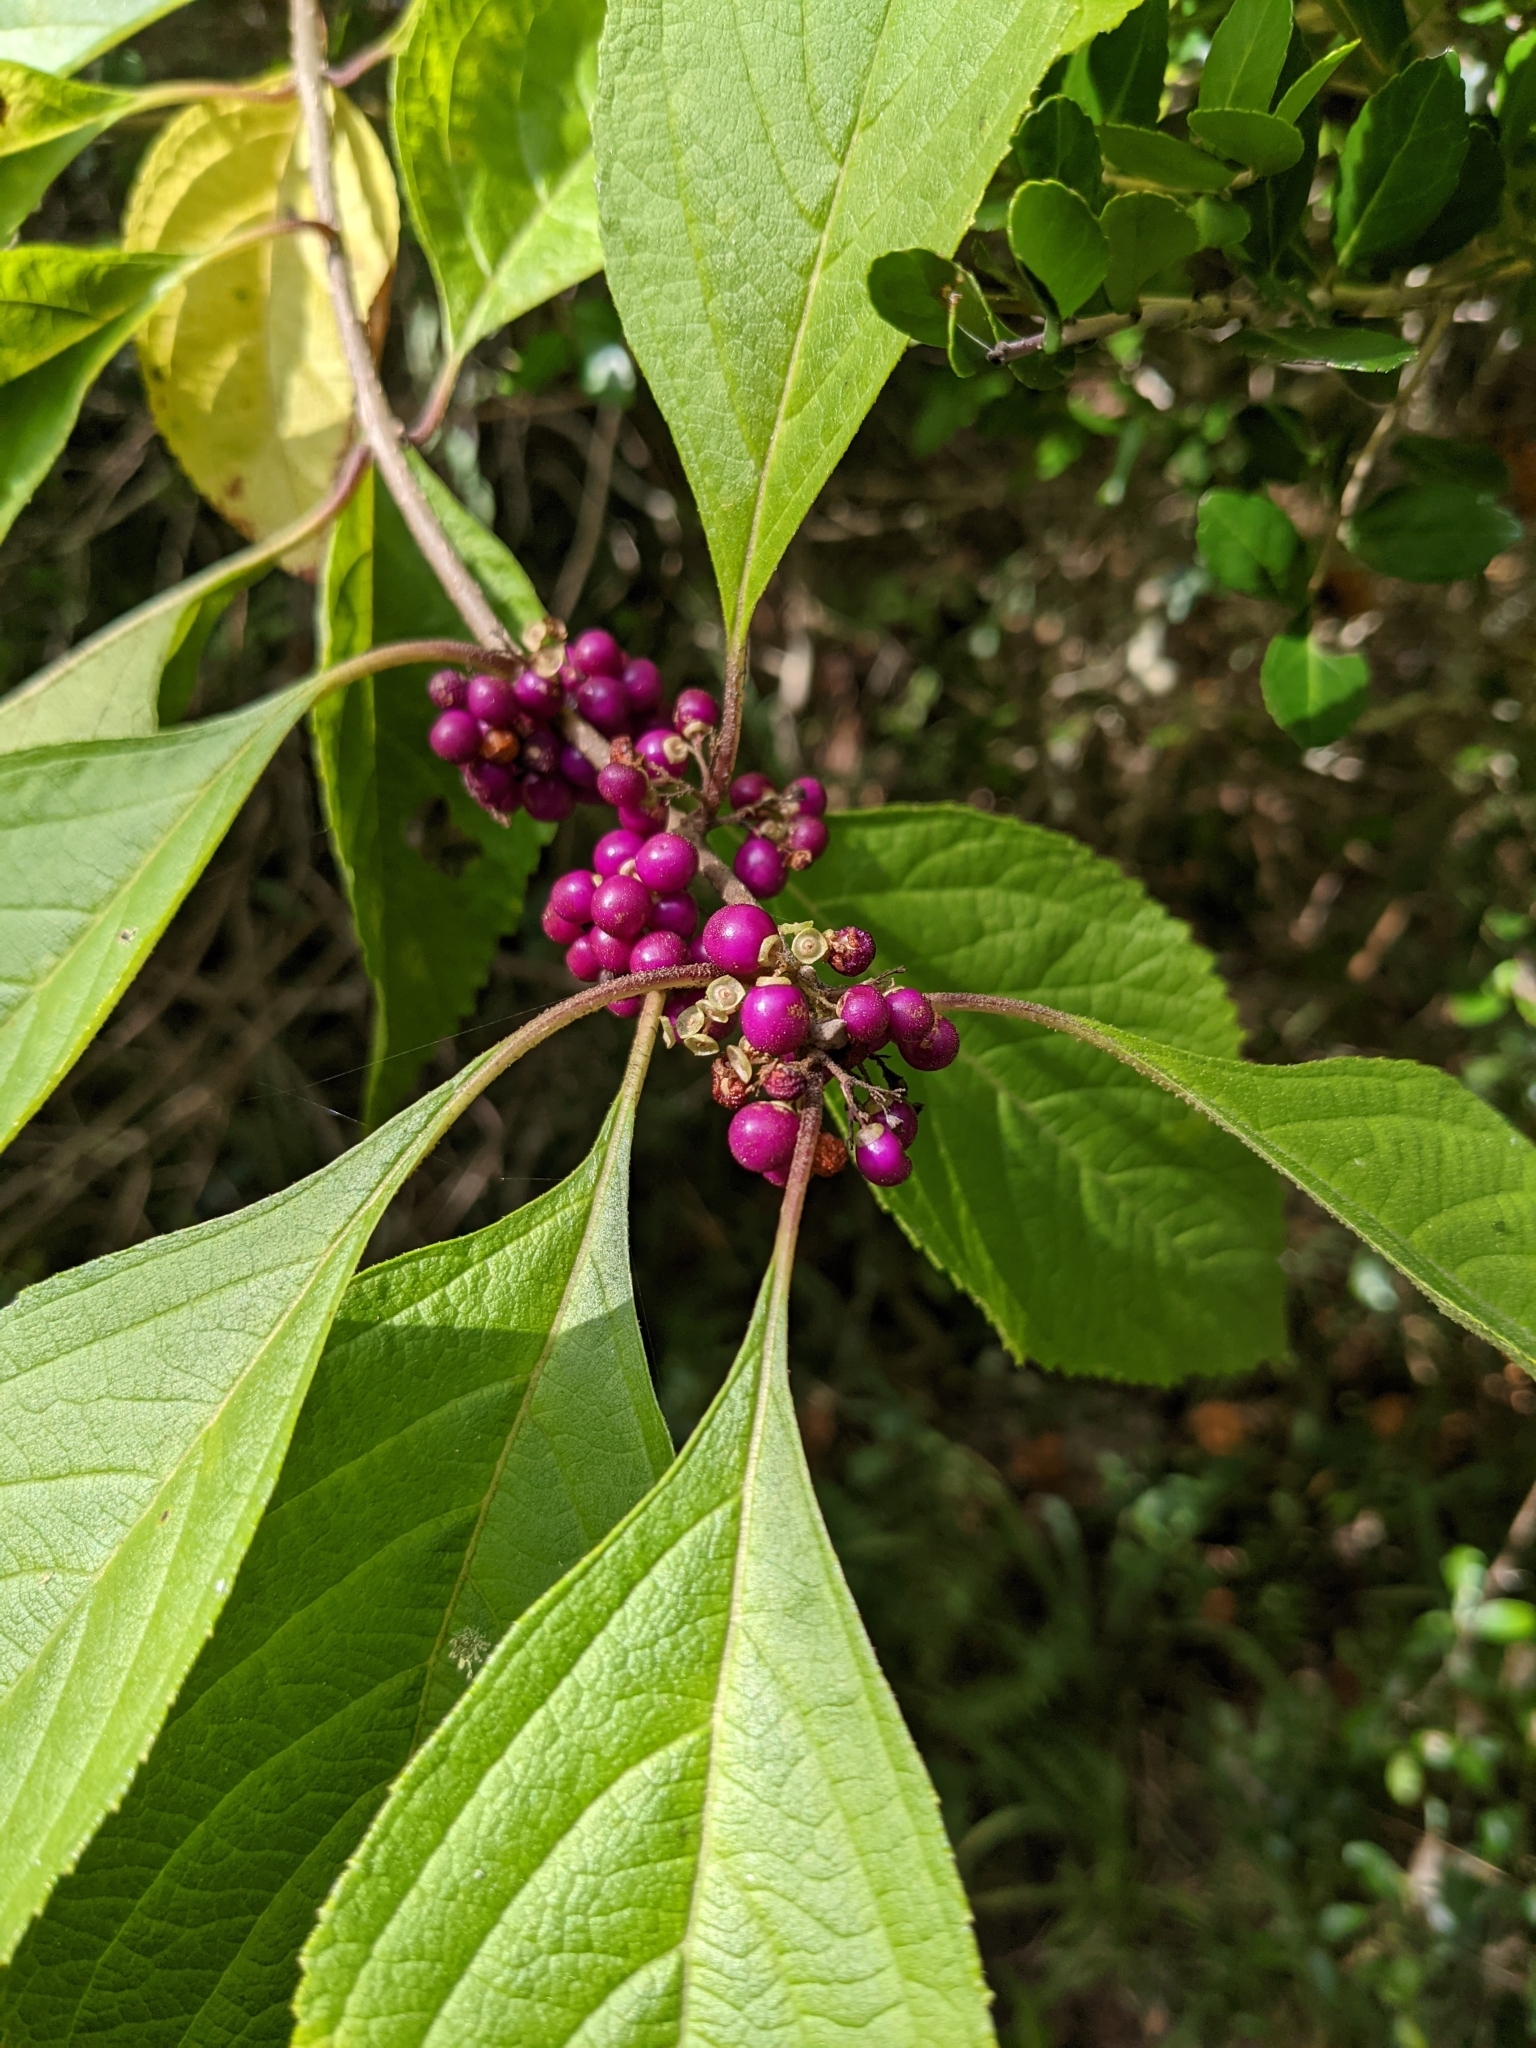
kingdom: Plantae
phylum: Tracheophyta
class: Magnoliopsida
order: Lamiales
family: Lamiaceae
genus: Callicarpa
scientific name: Callicarpa americana
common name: American beautyberry
